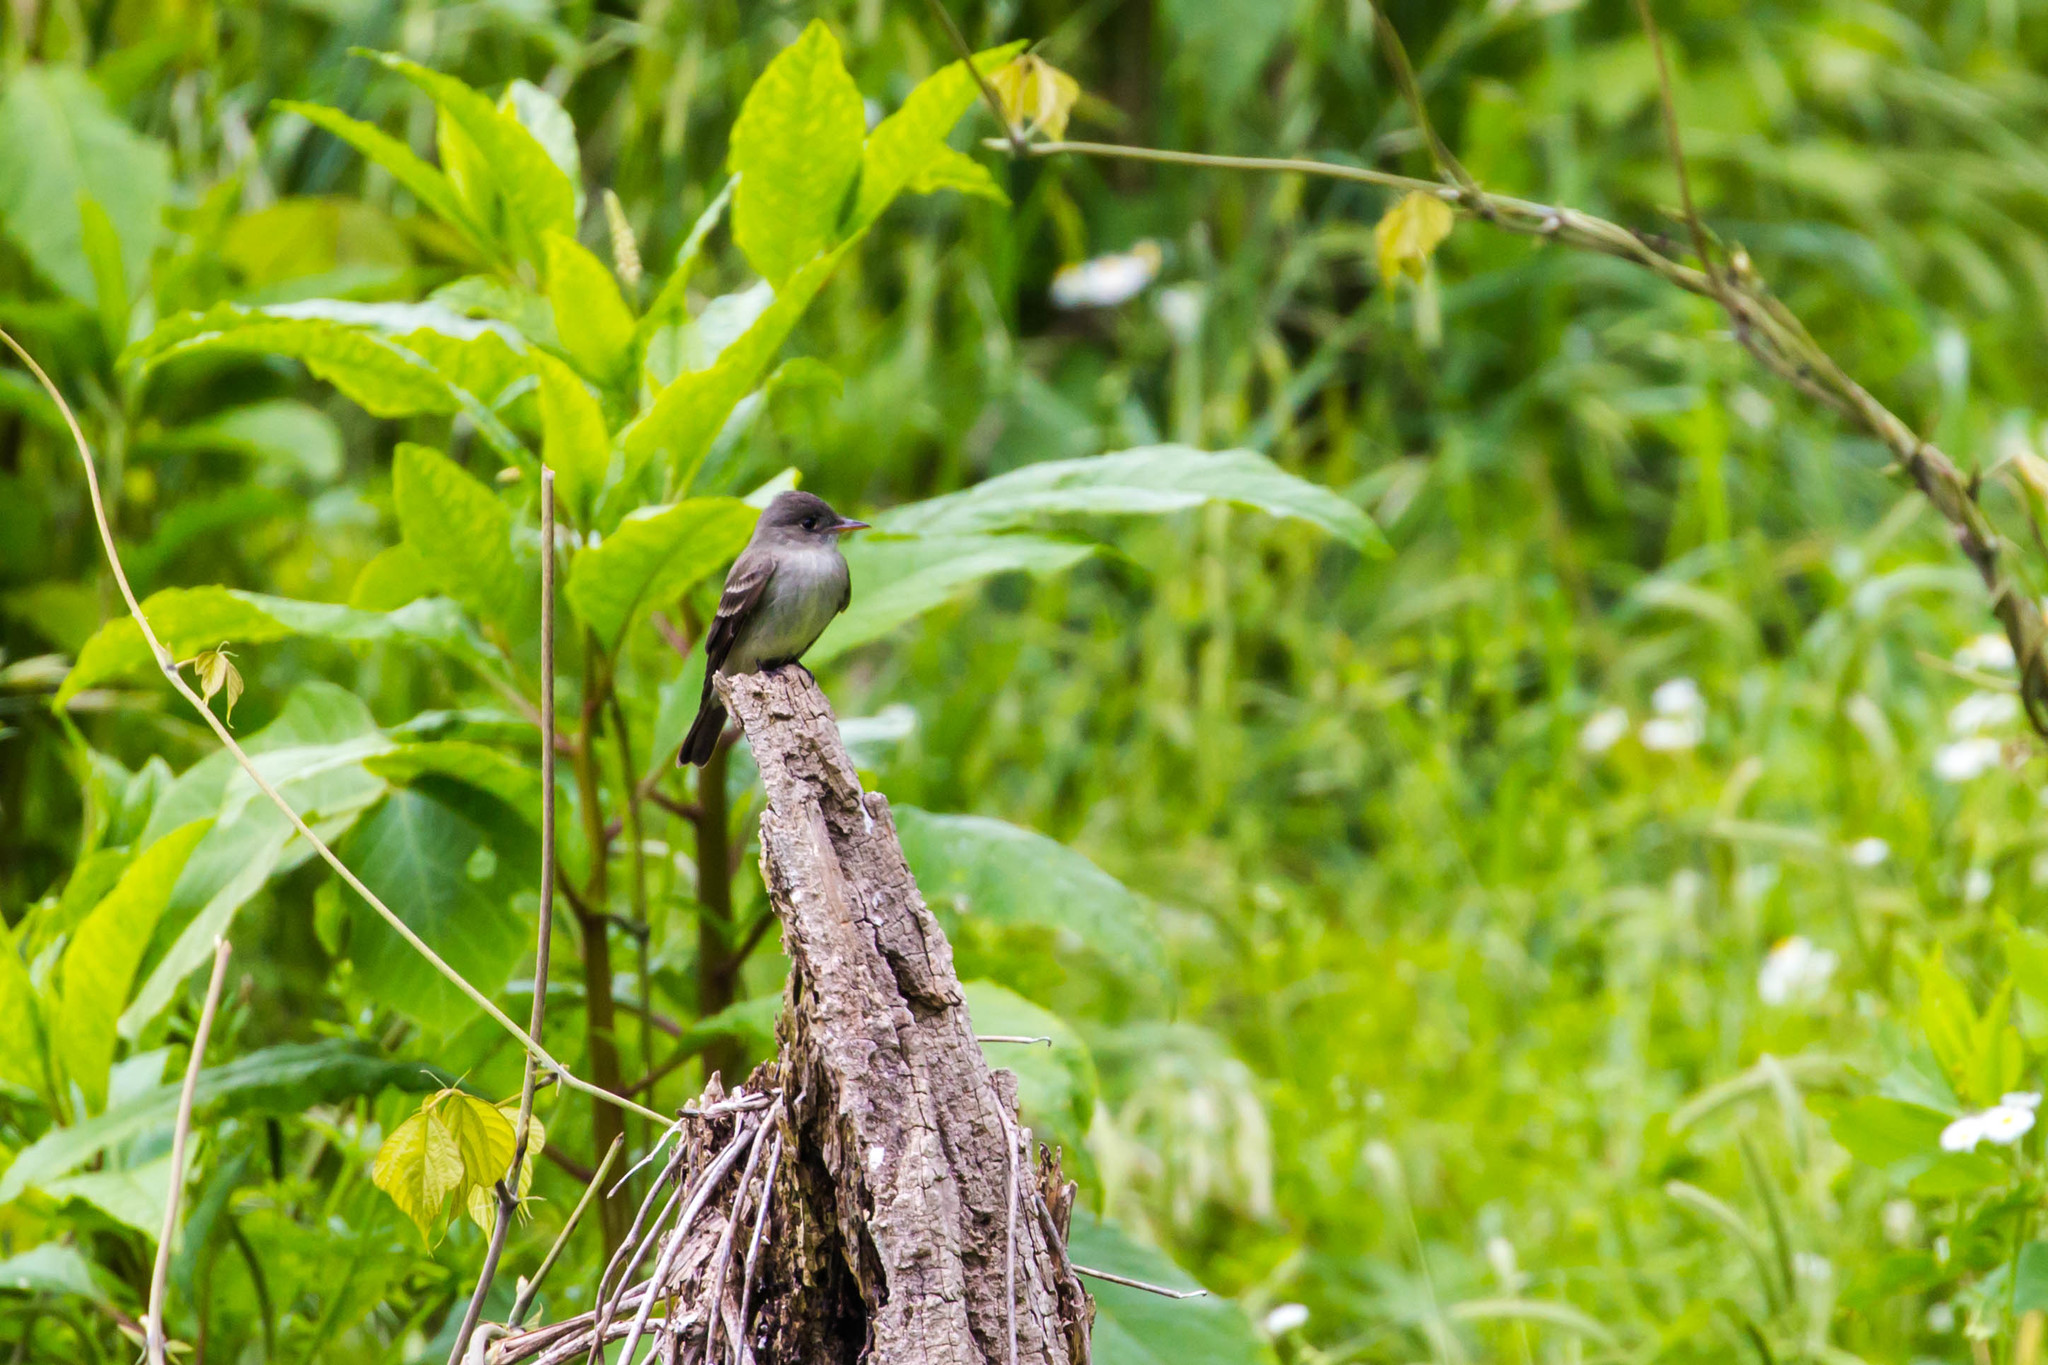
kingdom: Animalia
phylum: Chordata
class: Aves
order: Passeriformes
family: Tyrannidae
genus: Contopus
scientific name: Contopus virens
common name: Eastern wood-pewee
